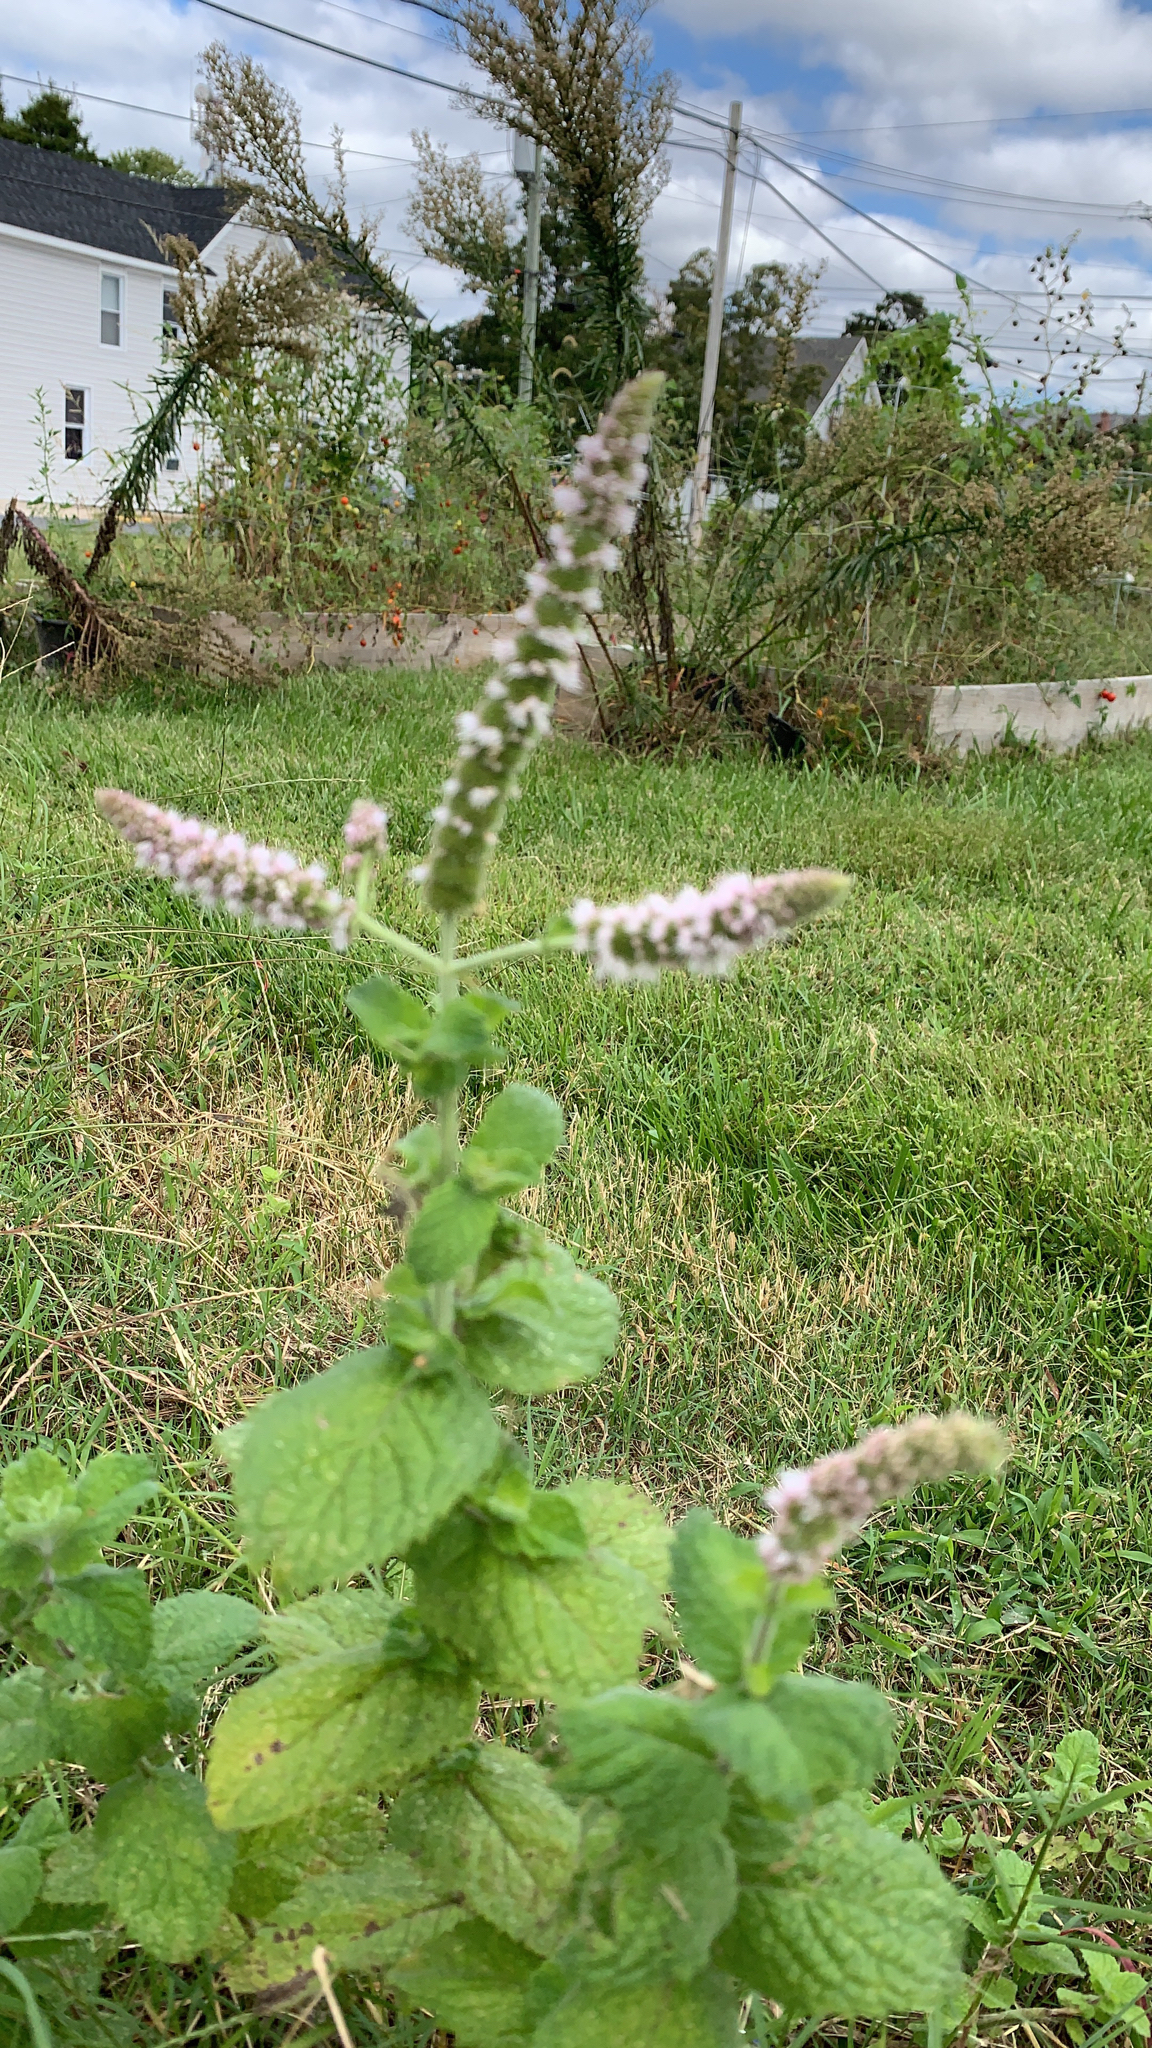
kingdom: Plantae
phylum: Tracheophyta
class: Magnoliopsida
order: Lamiales
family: Lamiaceae
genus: Mentha
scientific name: Mentha suaveolens
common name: Apple mint
